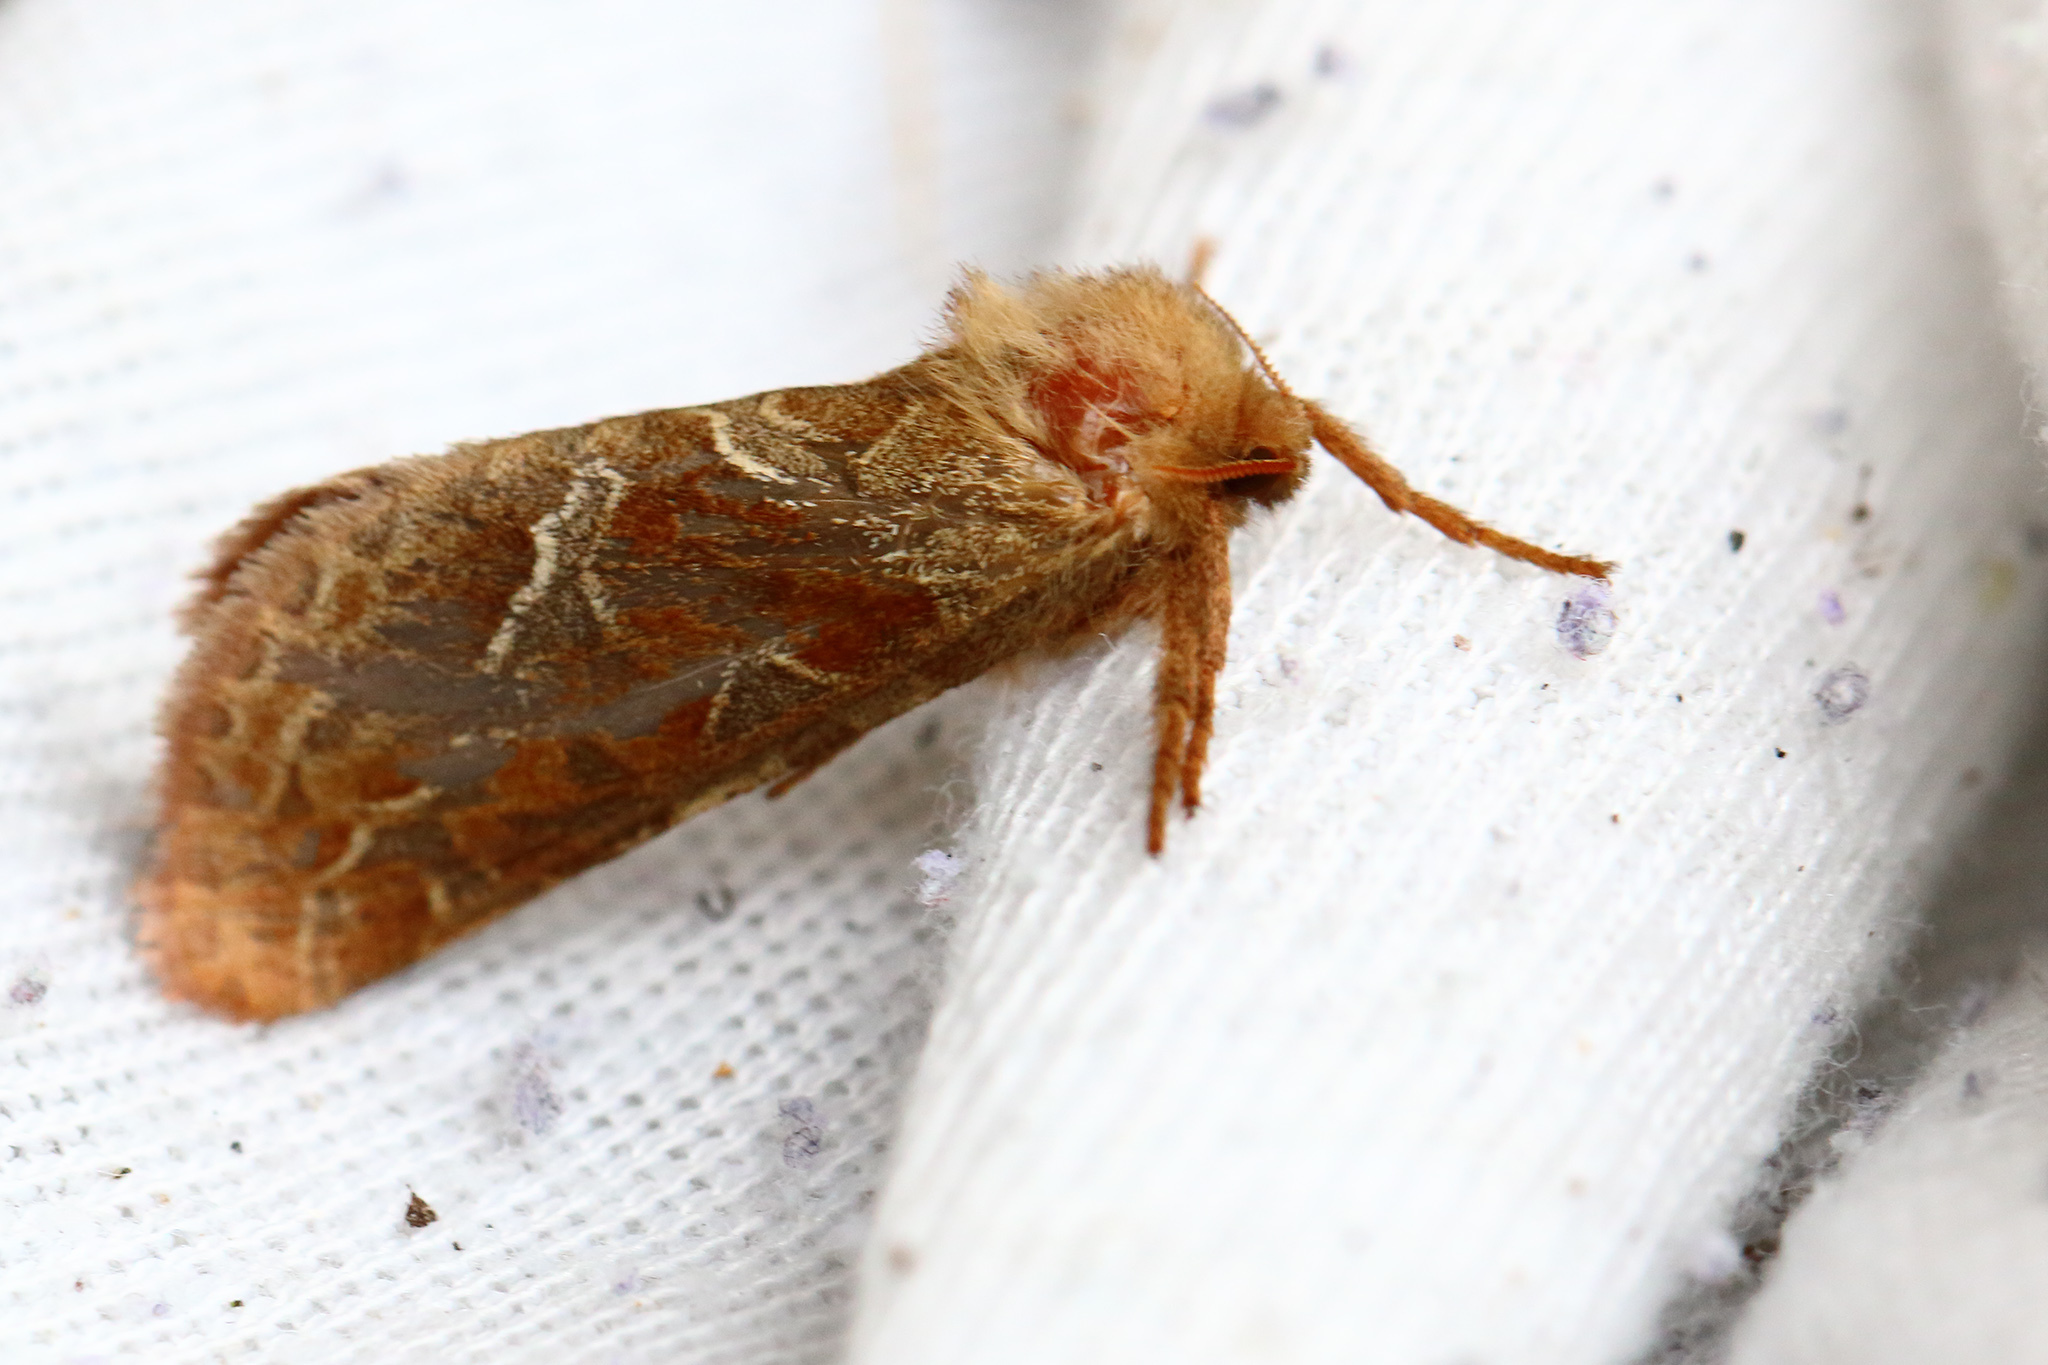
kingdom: Animalia
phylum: Arthropoda
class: Insecta
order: Lepidoptera
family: Hepialidae
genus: Triodia
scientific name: Triodia sylvina
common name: Orange swift
